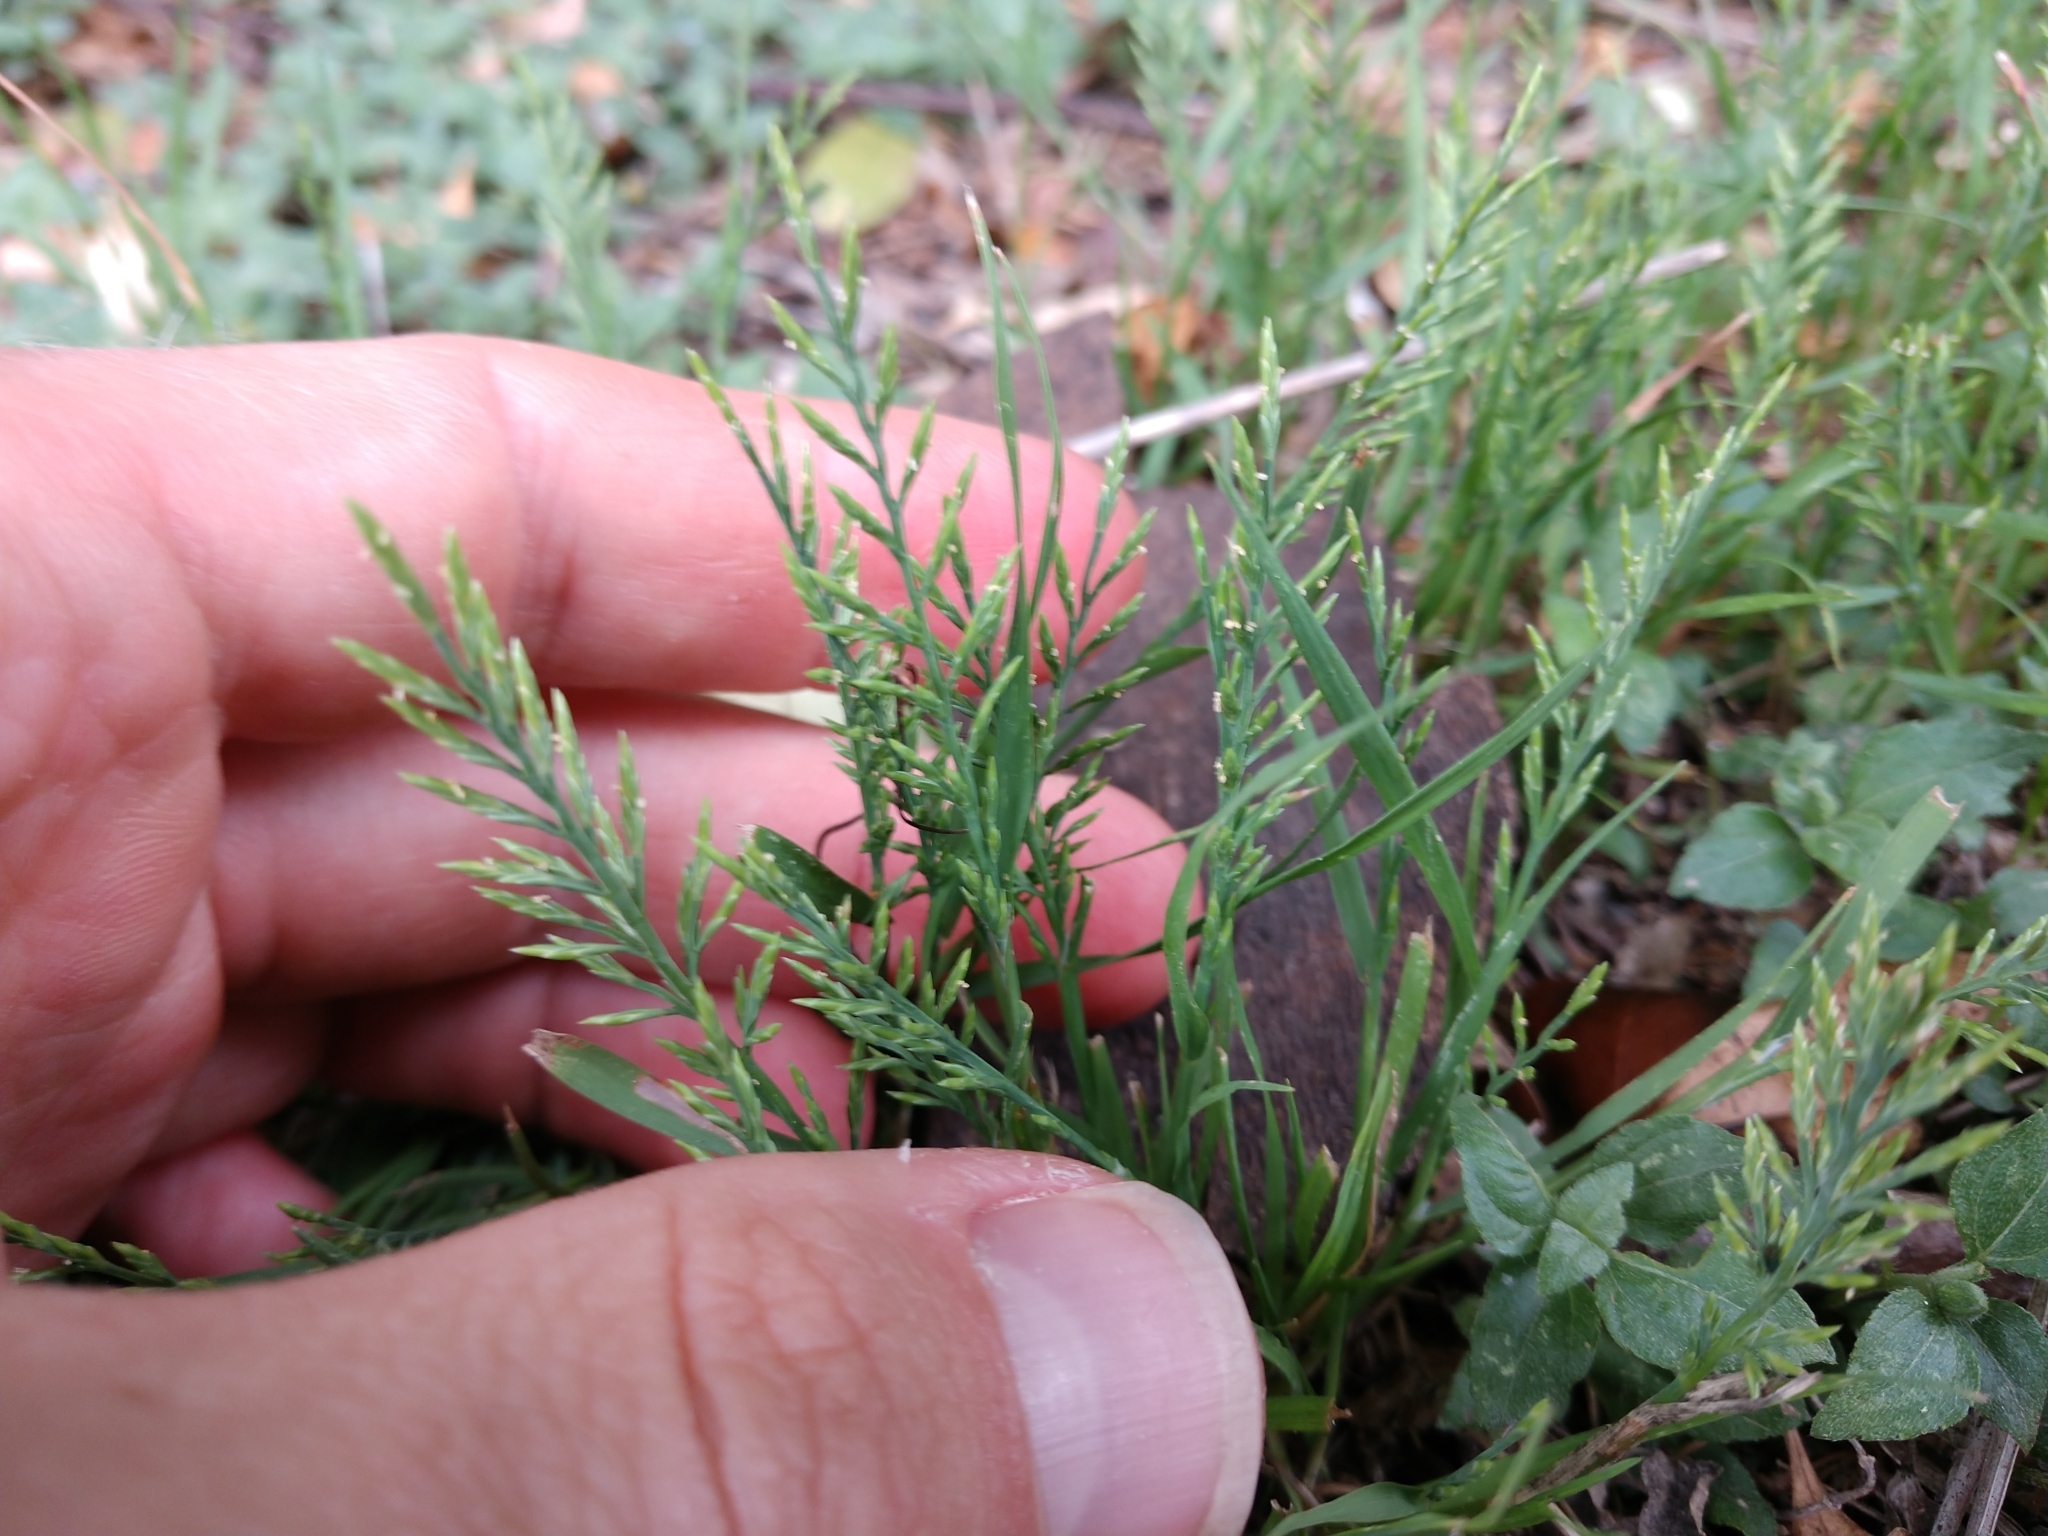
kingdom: Plantae
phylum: Tracheophyta
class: Liliopsida
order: Poales
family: Poaceae
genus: Catapodium
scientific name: Catapodium rigidum
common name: Fern-grass
